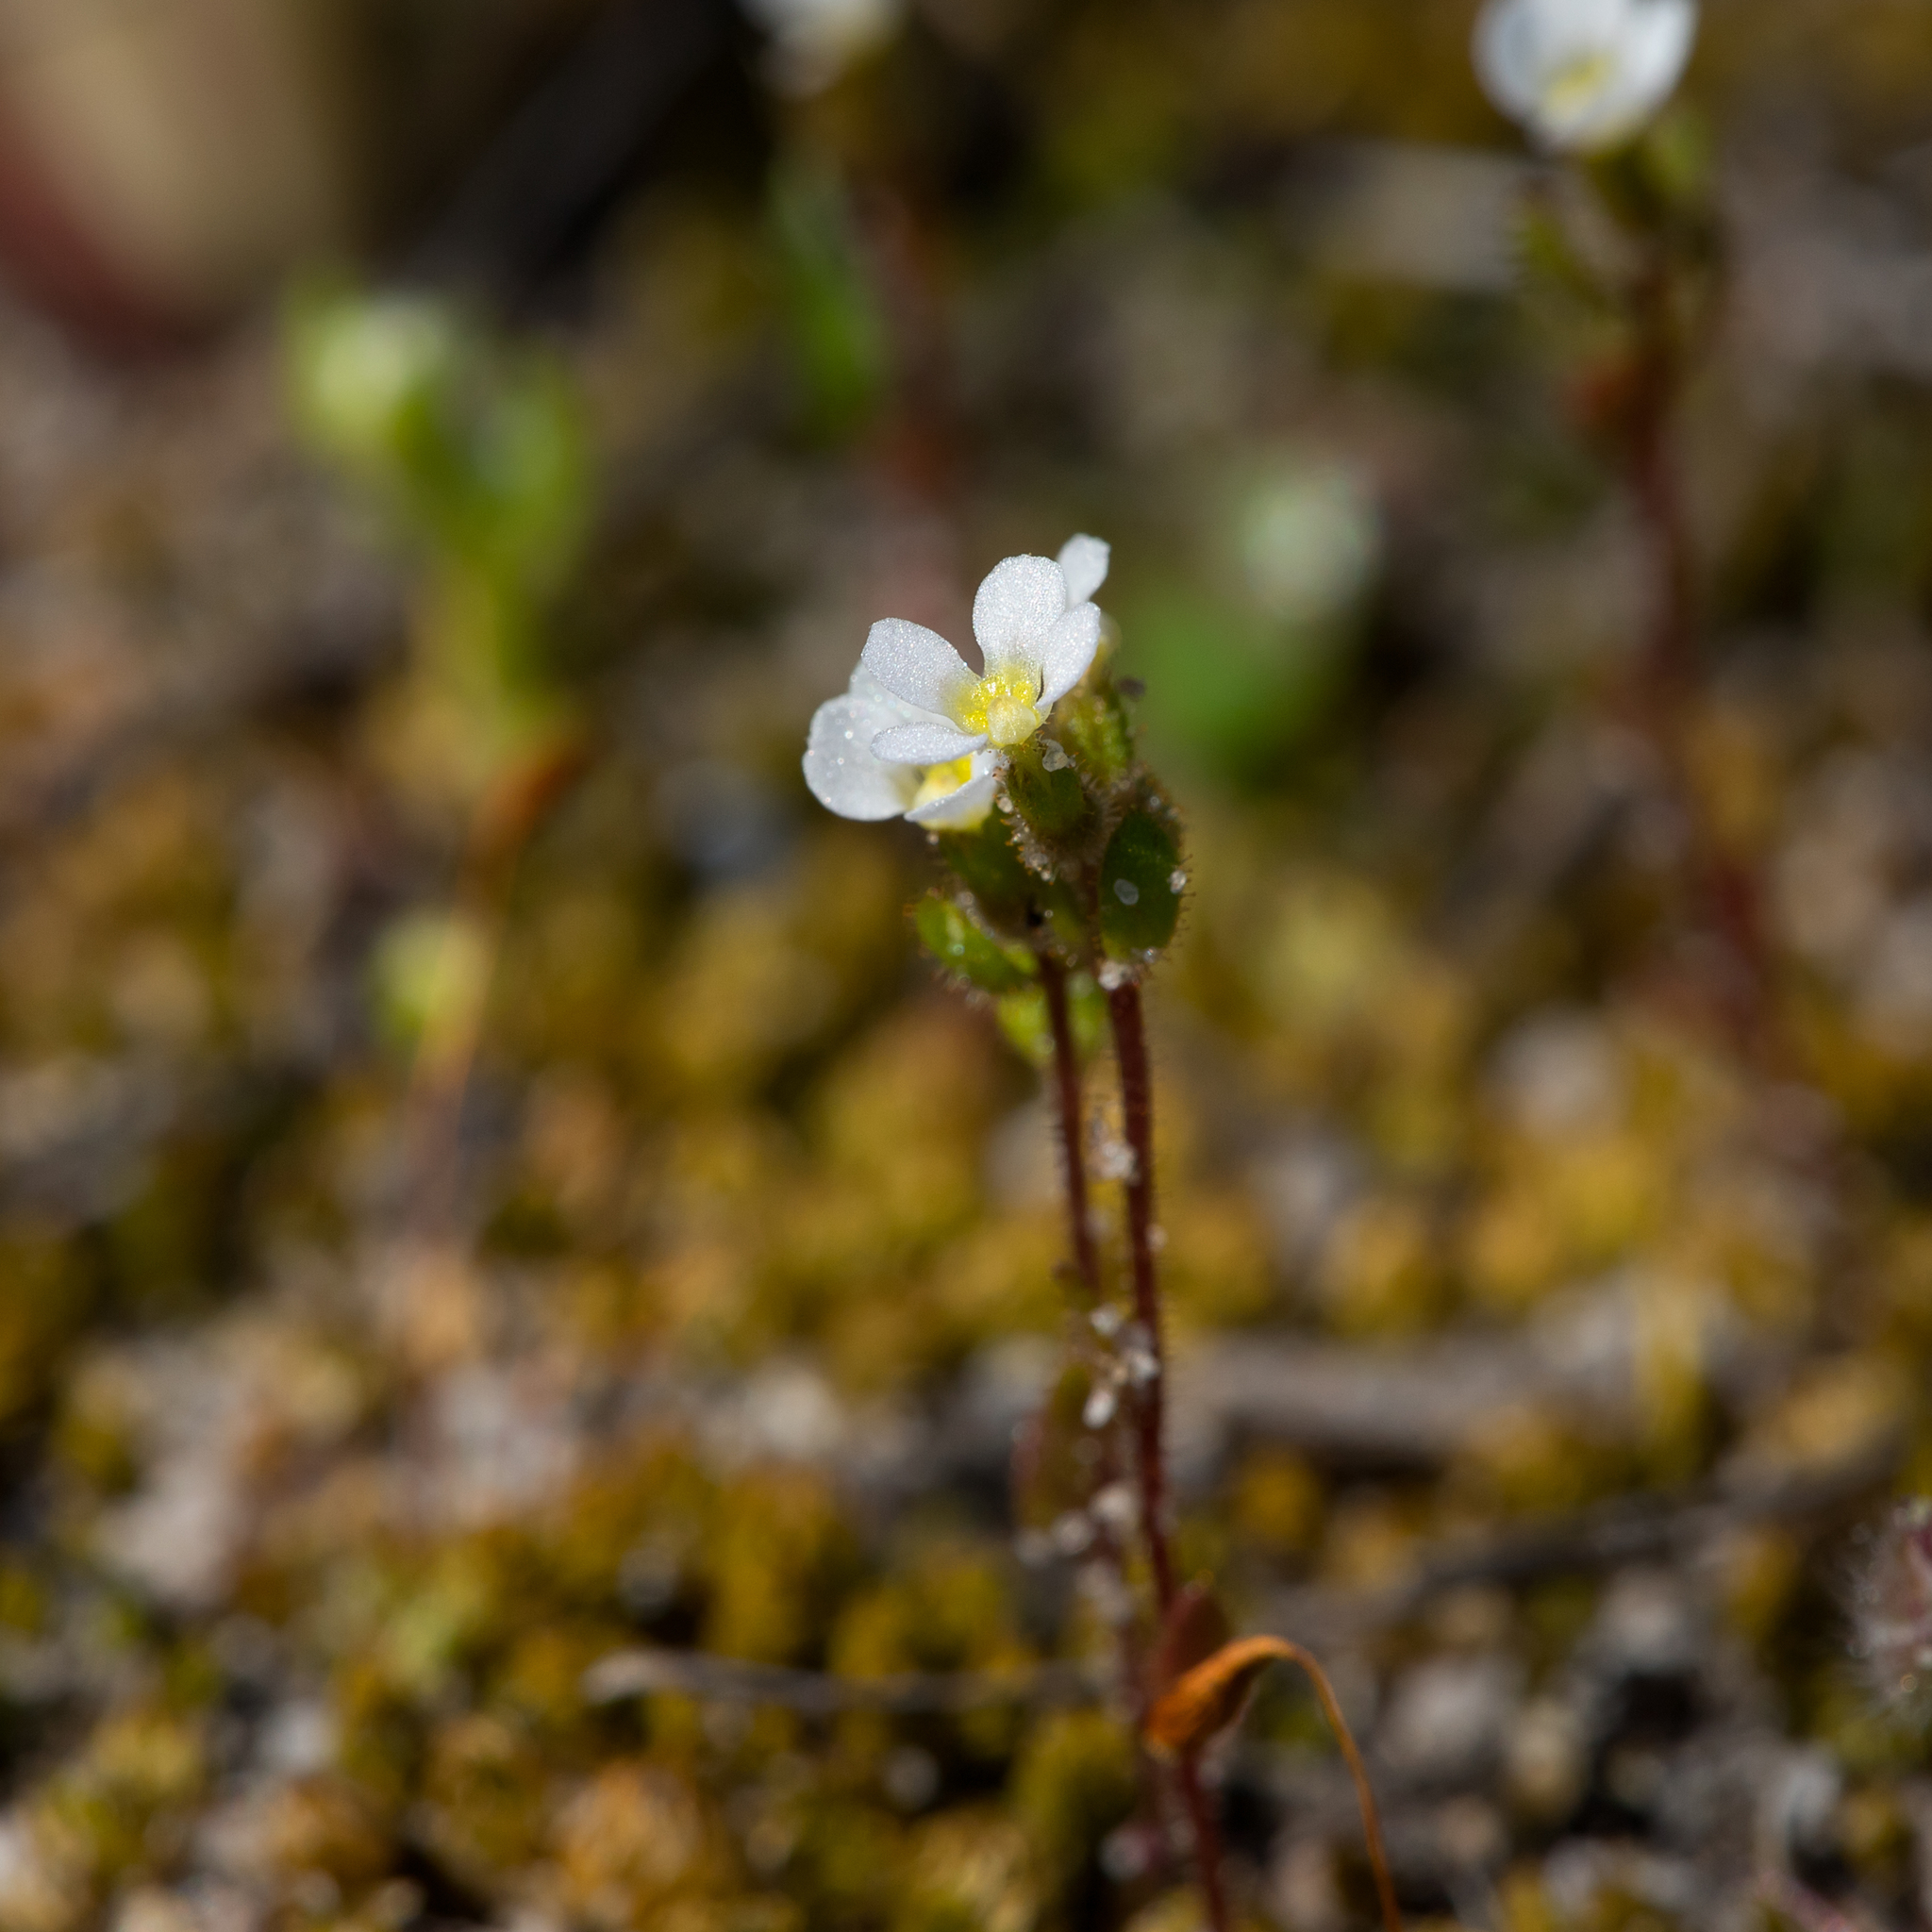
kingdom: Plantae
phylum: Tracheophyta
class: Magnoliopsida
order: Asterales
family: Stylidiaceae
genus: Levenhookia
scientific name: Levenhookia dubia
